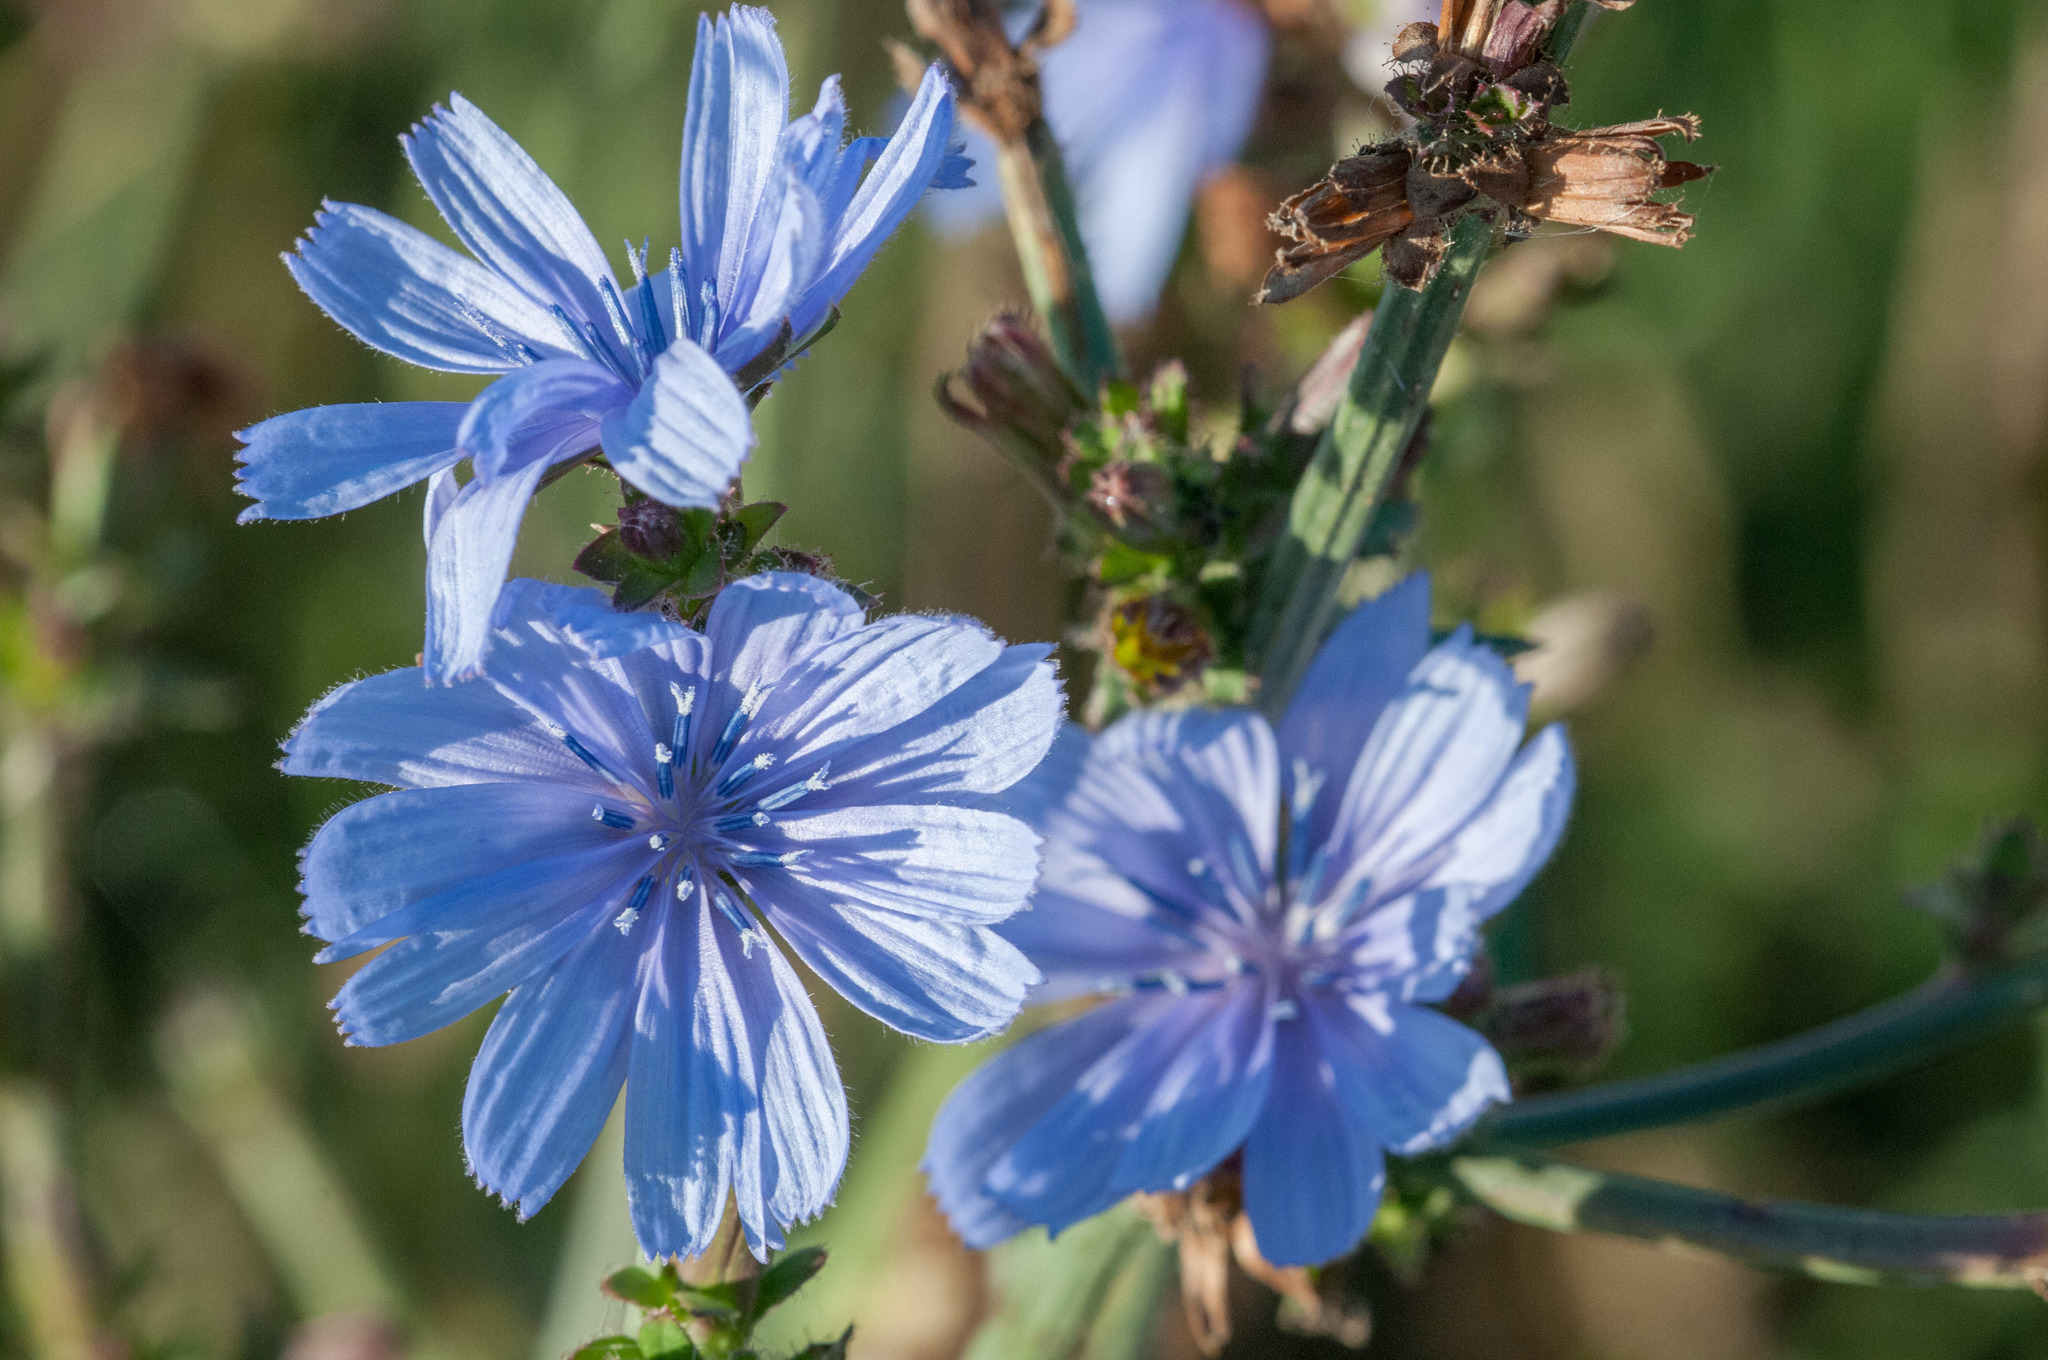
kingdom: Plantae
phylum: Tracheophyta
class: Magnoliopsida
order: Asterales
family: Asteraceae
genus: Cichorium
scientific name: Cichorium intybus
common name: Chicory
